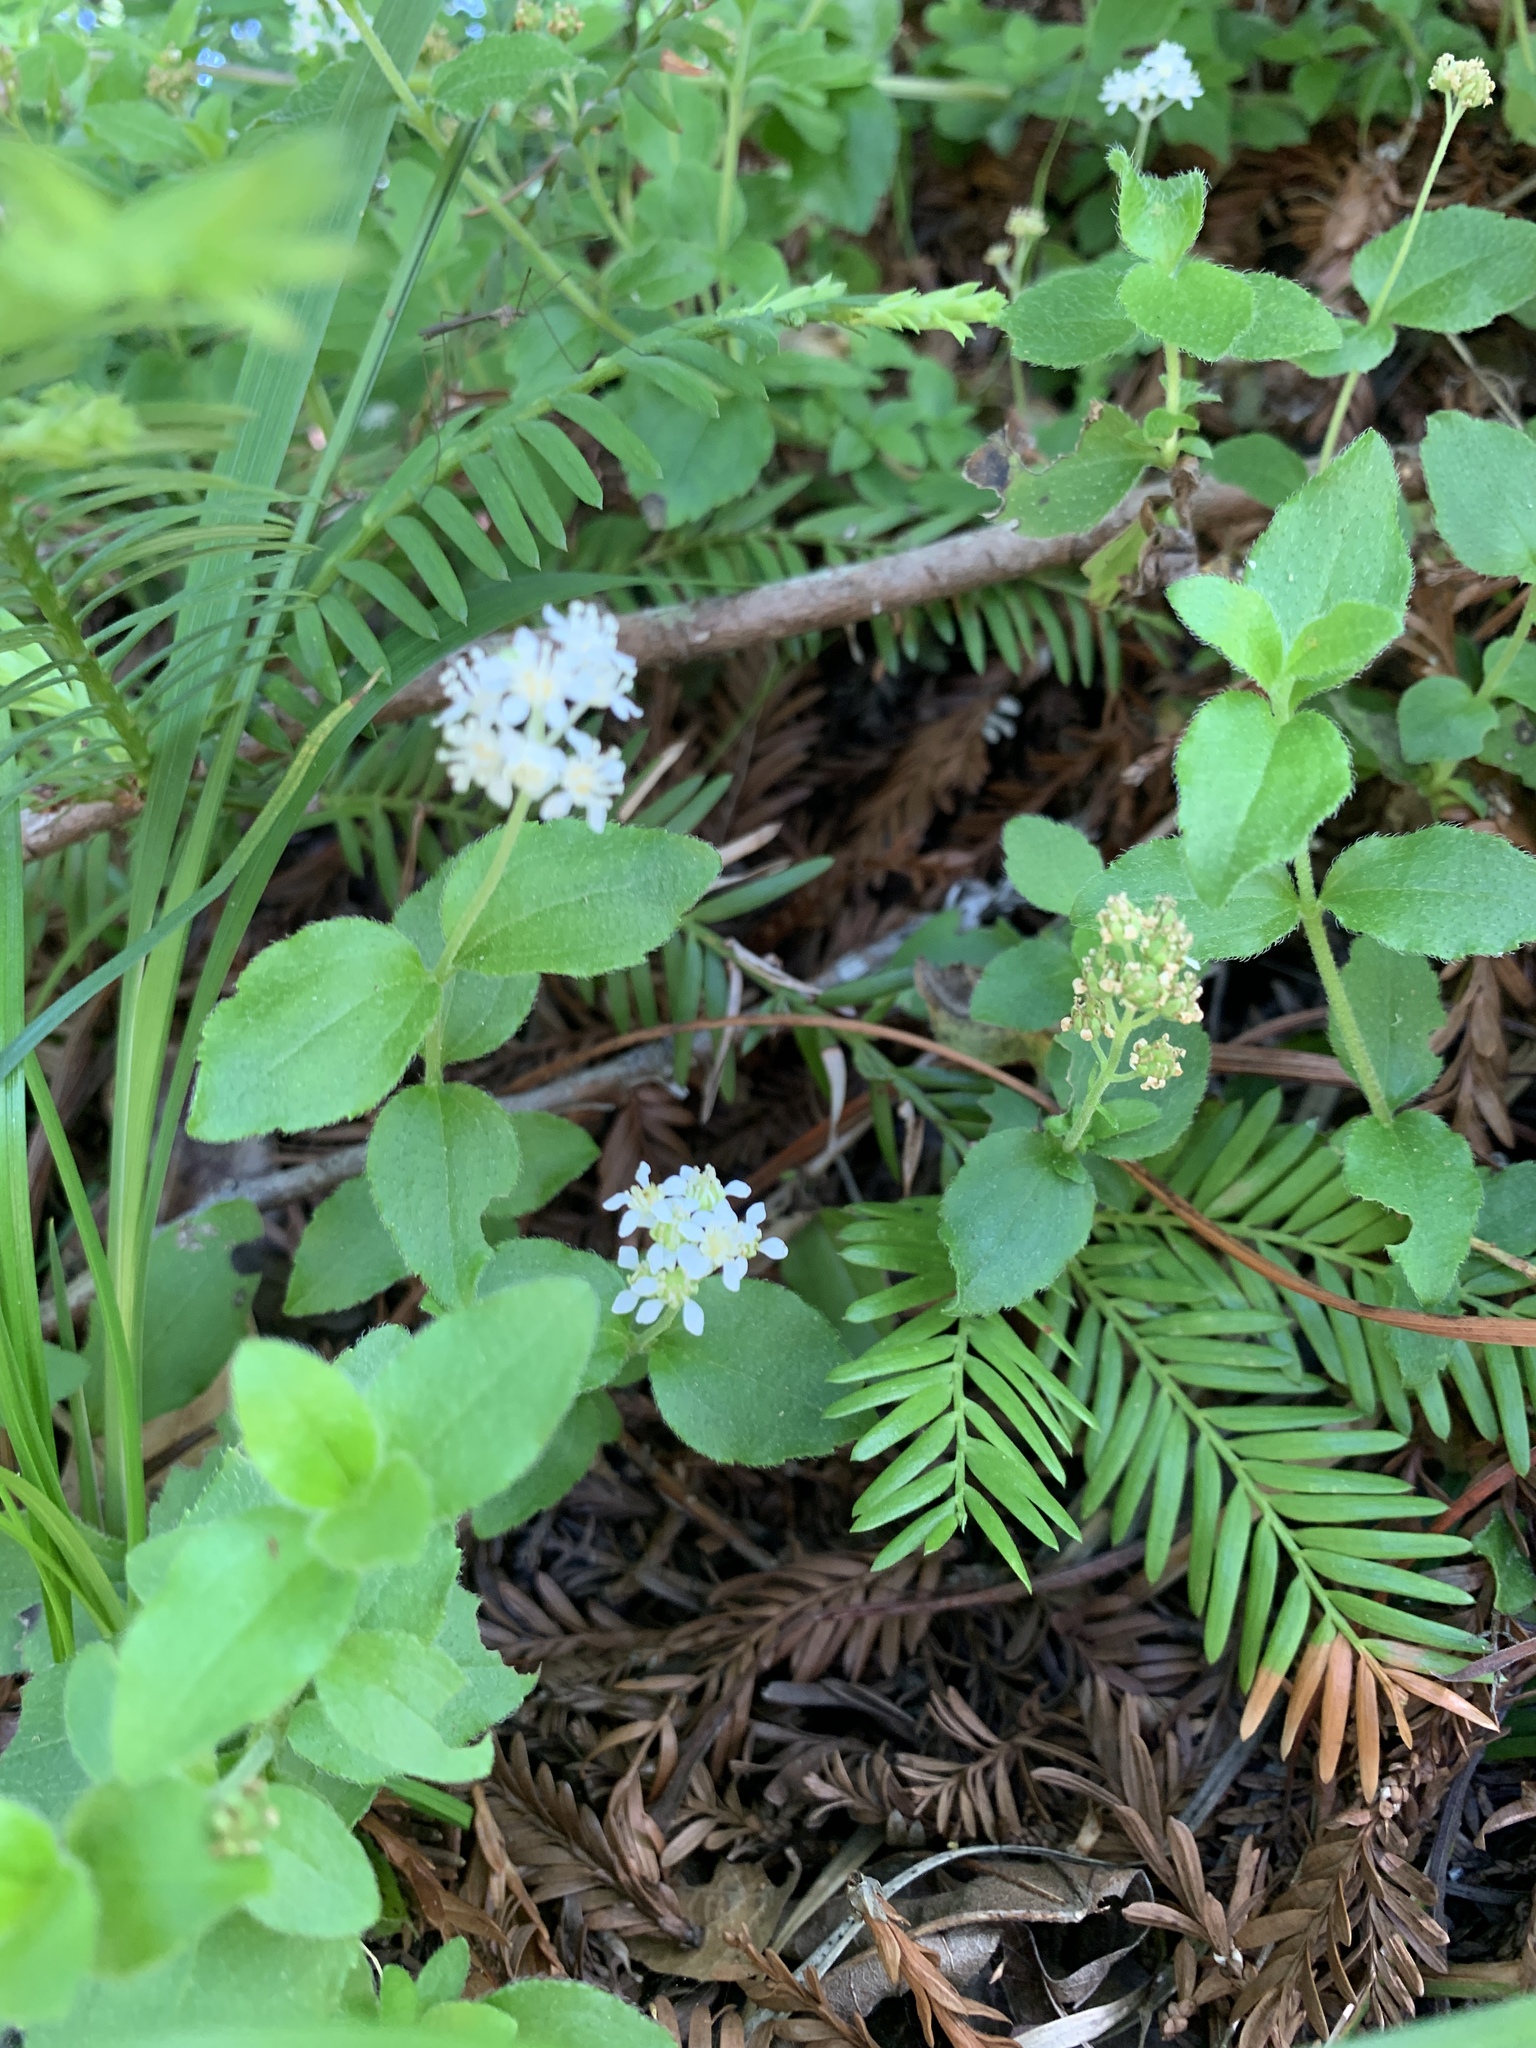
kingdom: Plantae
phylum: Tracheophyta
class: Magnoliopsida
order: Cornales
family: Hydrangeaceae
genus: Whipplea
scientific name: Whipplea modesta
